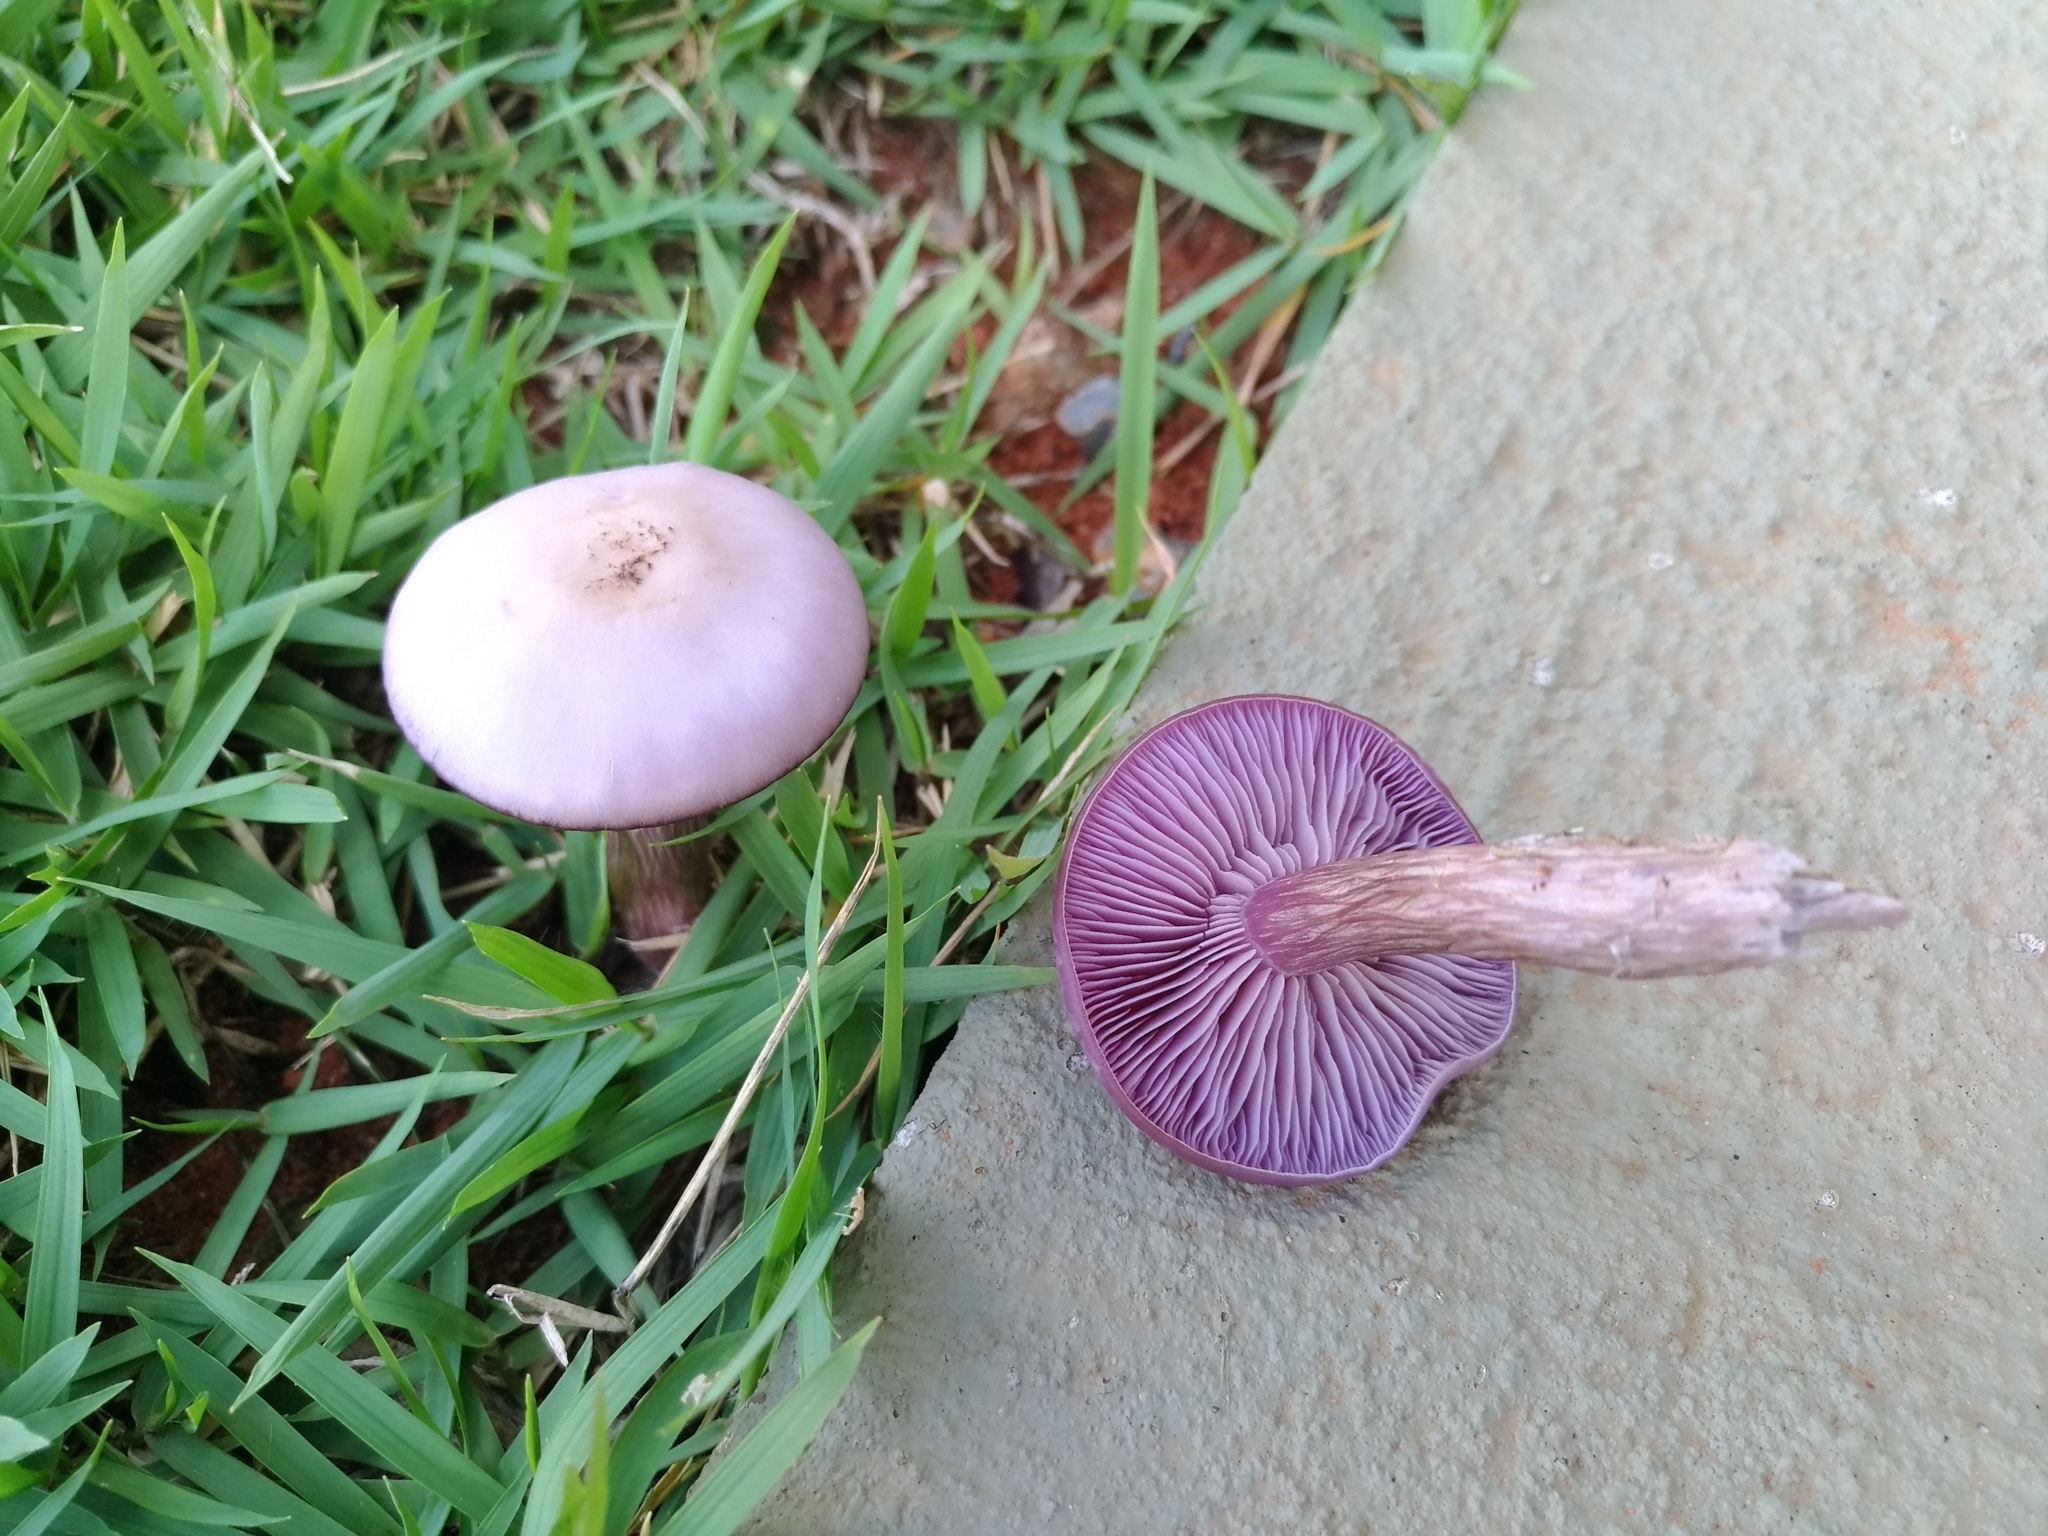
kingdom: Fungi
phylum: Basidiomycota
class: Agaricomycetes
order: Agaricales
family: Tricholomataceae
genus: Collybia
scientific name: Collybia
